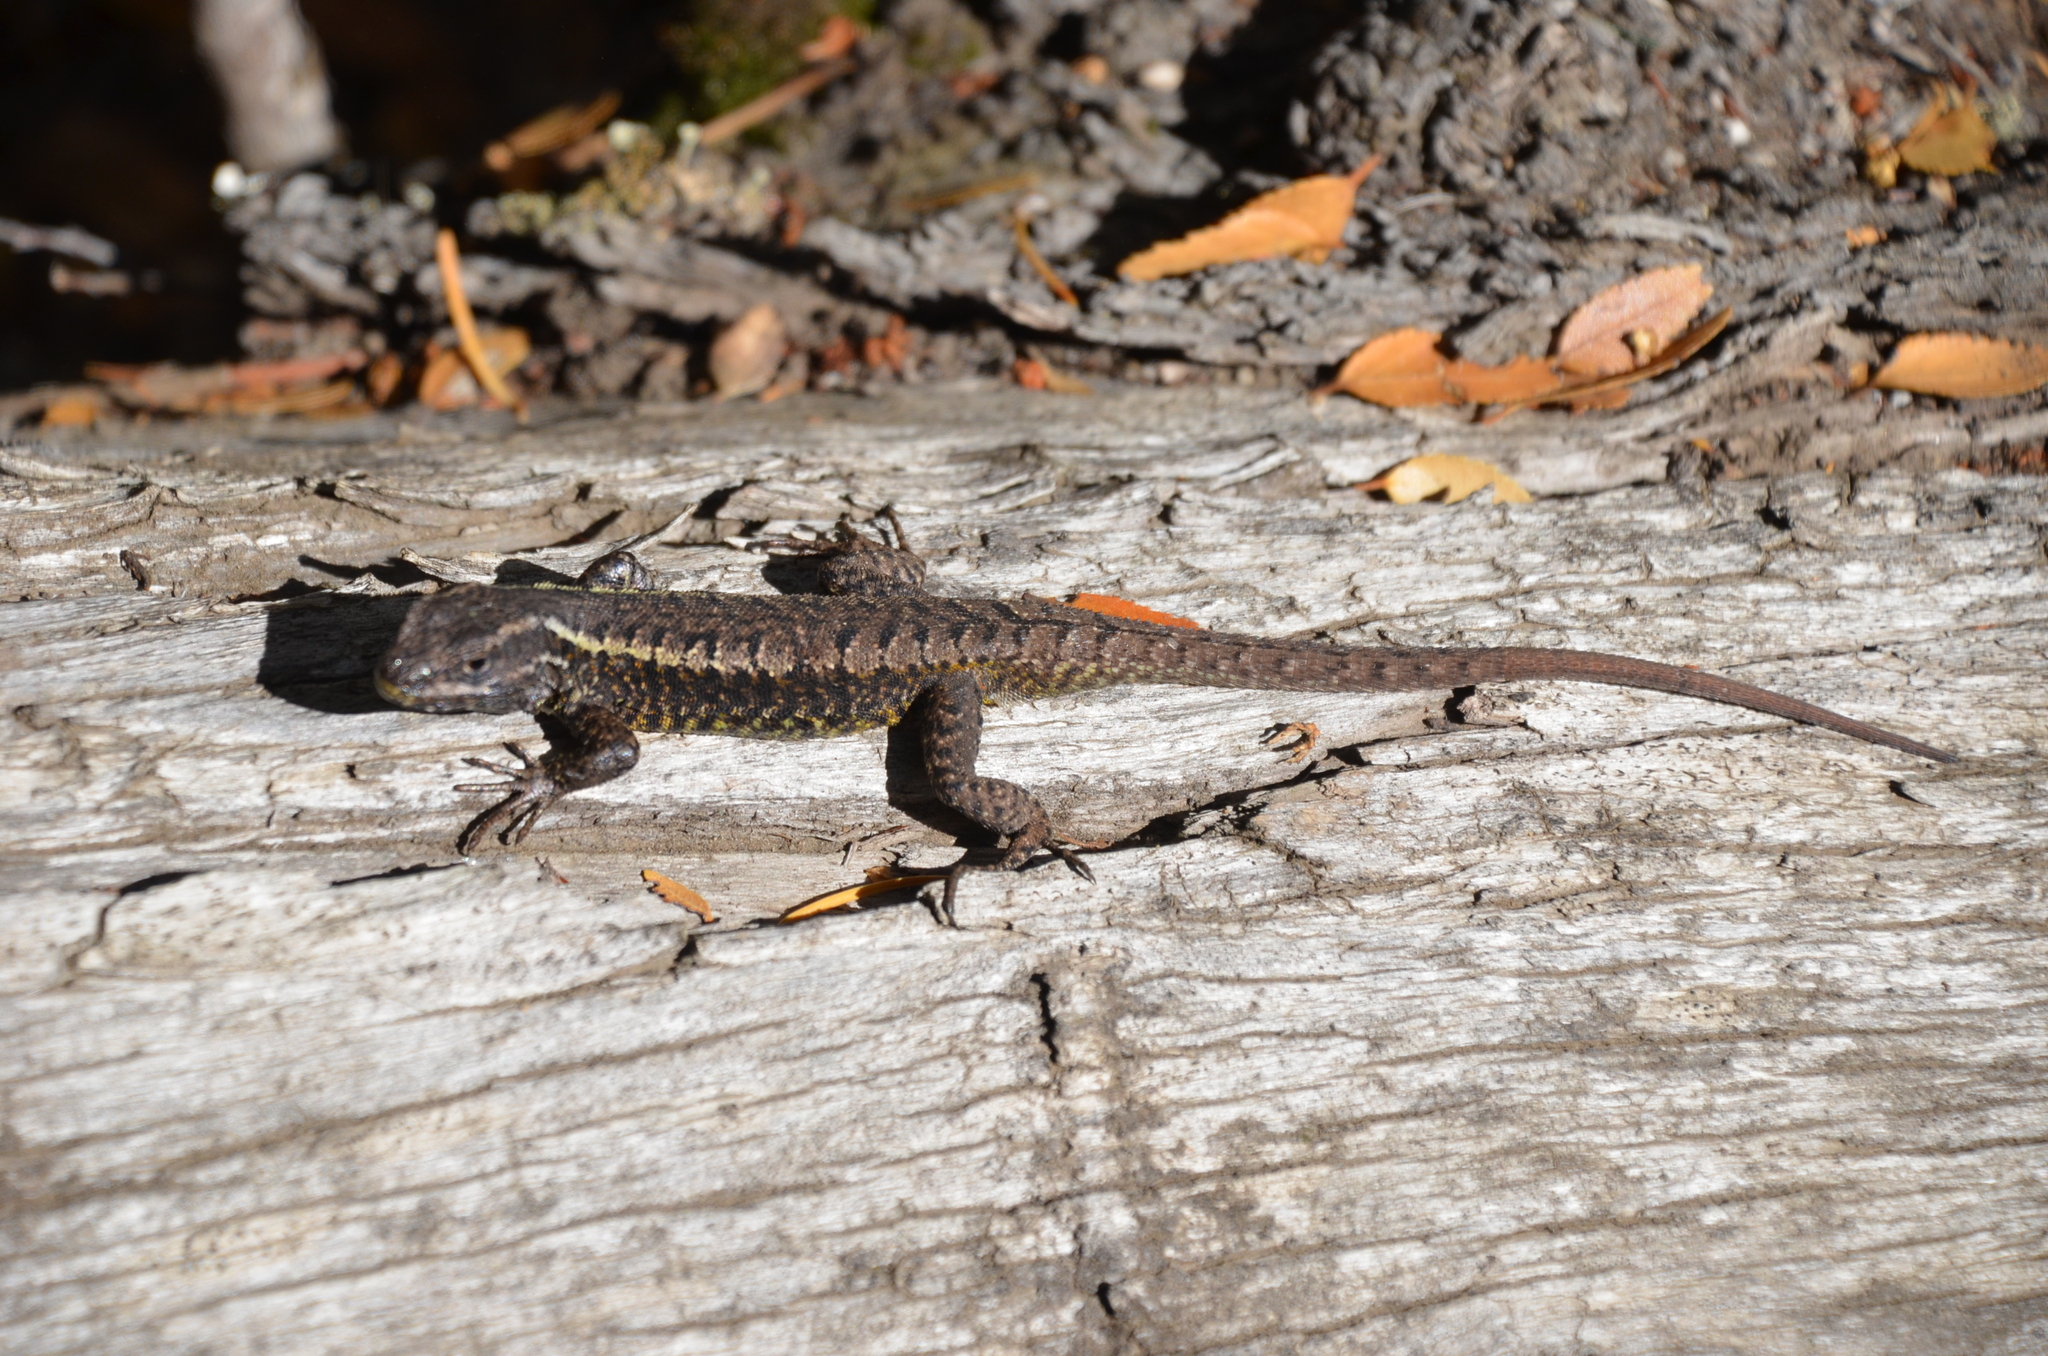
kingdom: Animalia
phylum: Chordata
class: Squamata
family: Liolaemidae
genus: Liolaemus
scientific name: Liolaemus pictus
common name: Painted tree iguana
